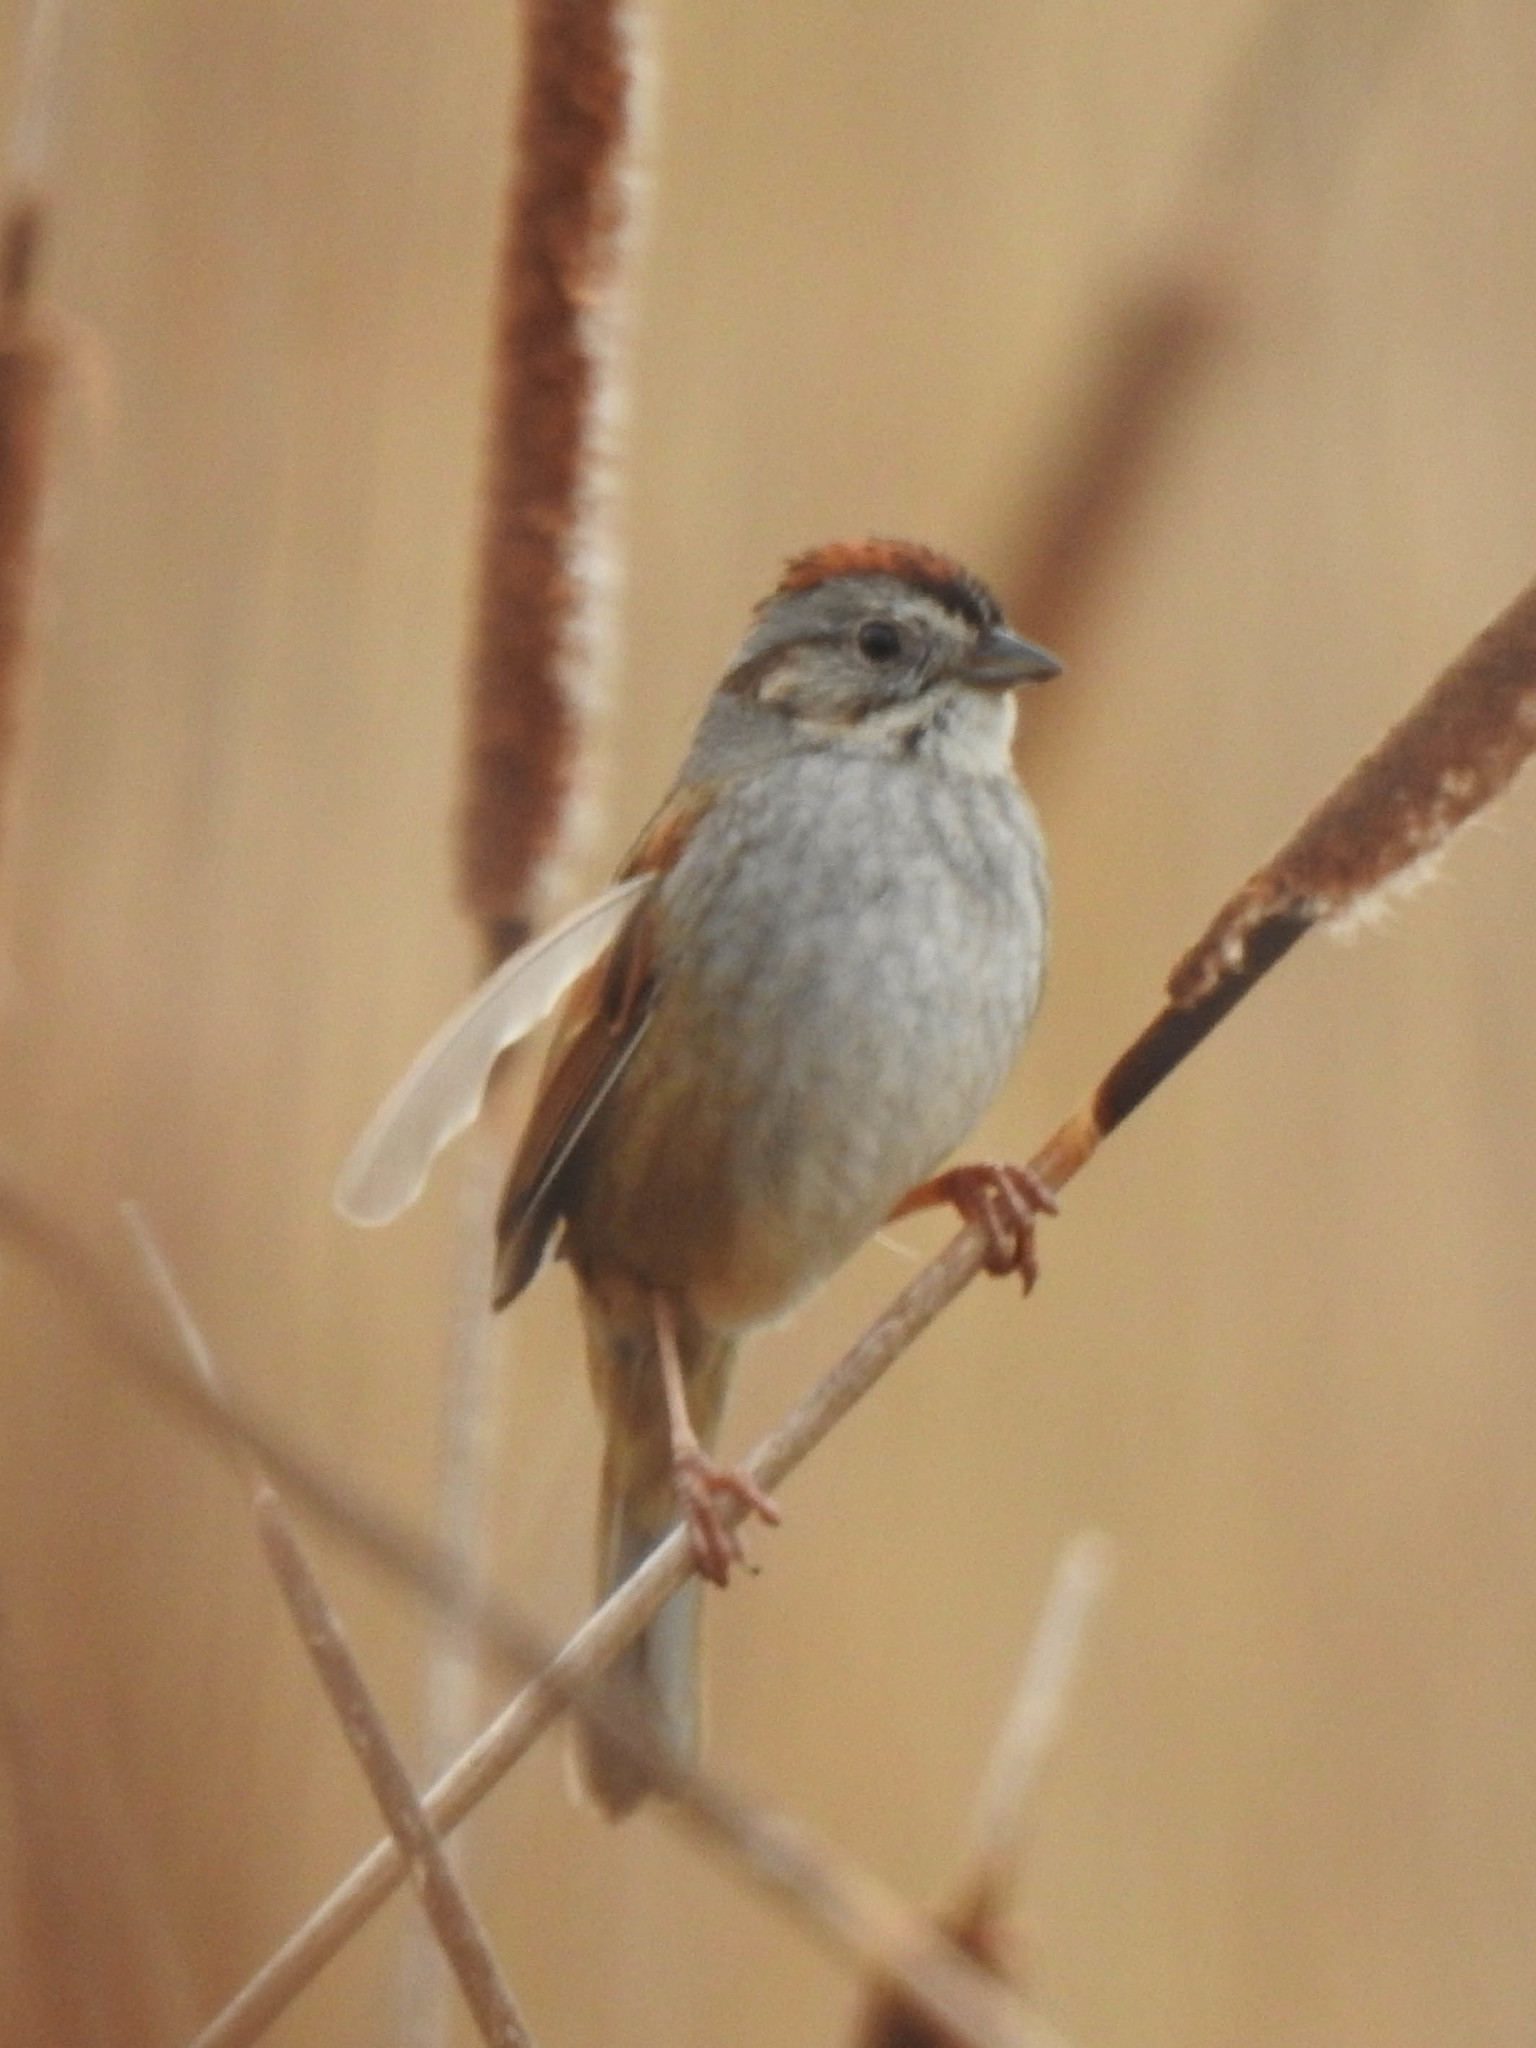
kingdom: Animalia
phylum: Chordata
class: Aves
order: Passeriformes
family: Passerellidae
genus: Melospiza
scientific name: Melospiza georgiana
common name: Swamp sparrow
